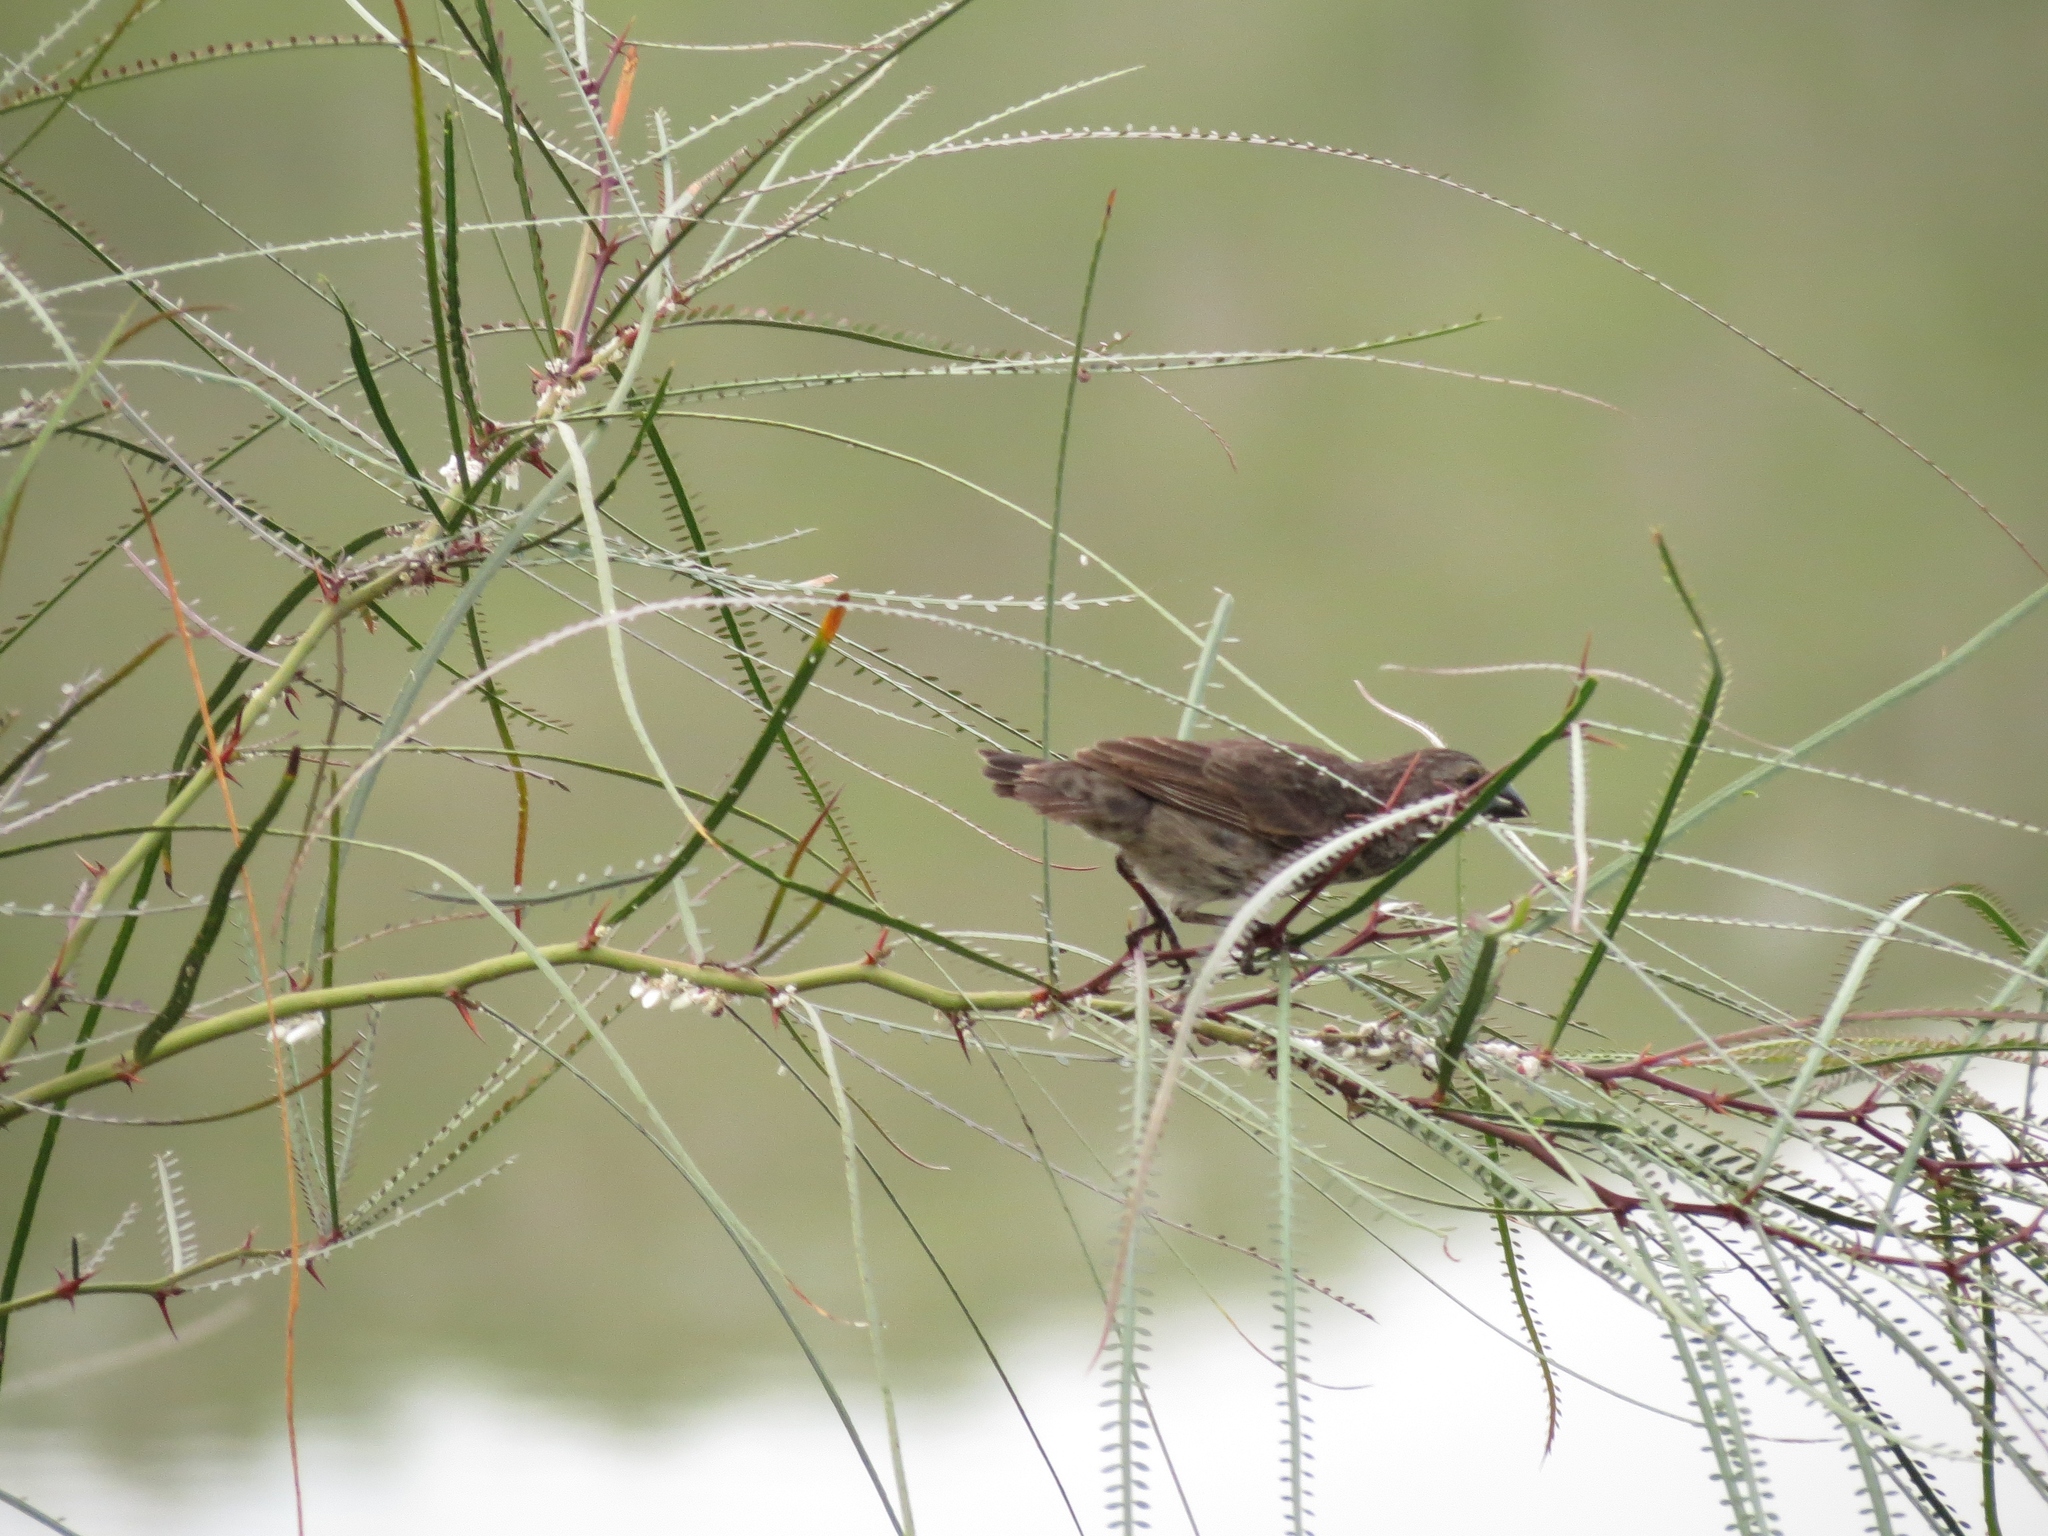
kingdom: Animalia
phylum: Chordata
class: Aves
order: Passeriformes
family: Thraupidae
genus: Geospiza
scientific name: Geospiza fortis
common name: Medium ground finch
